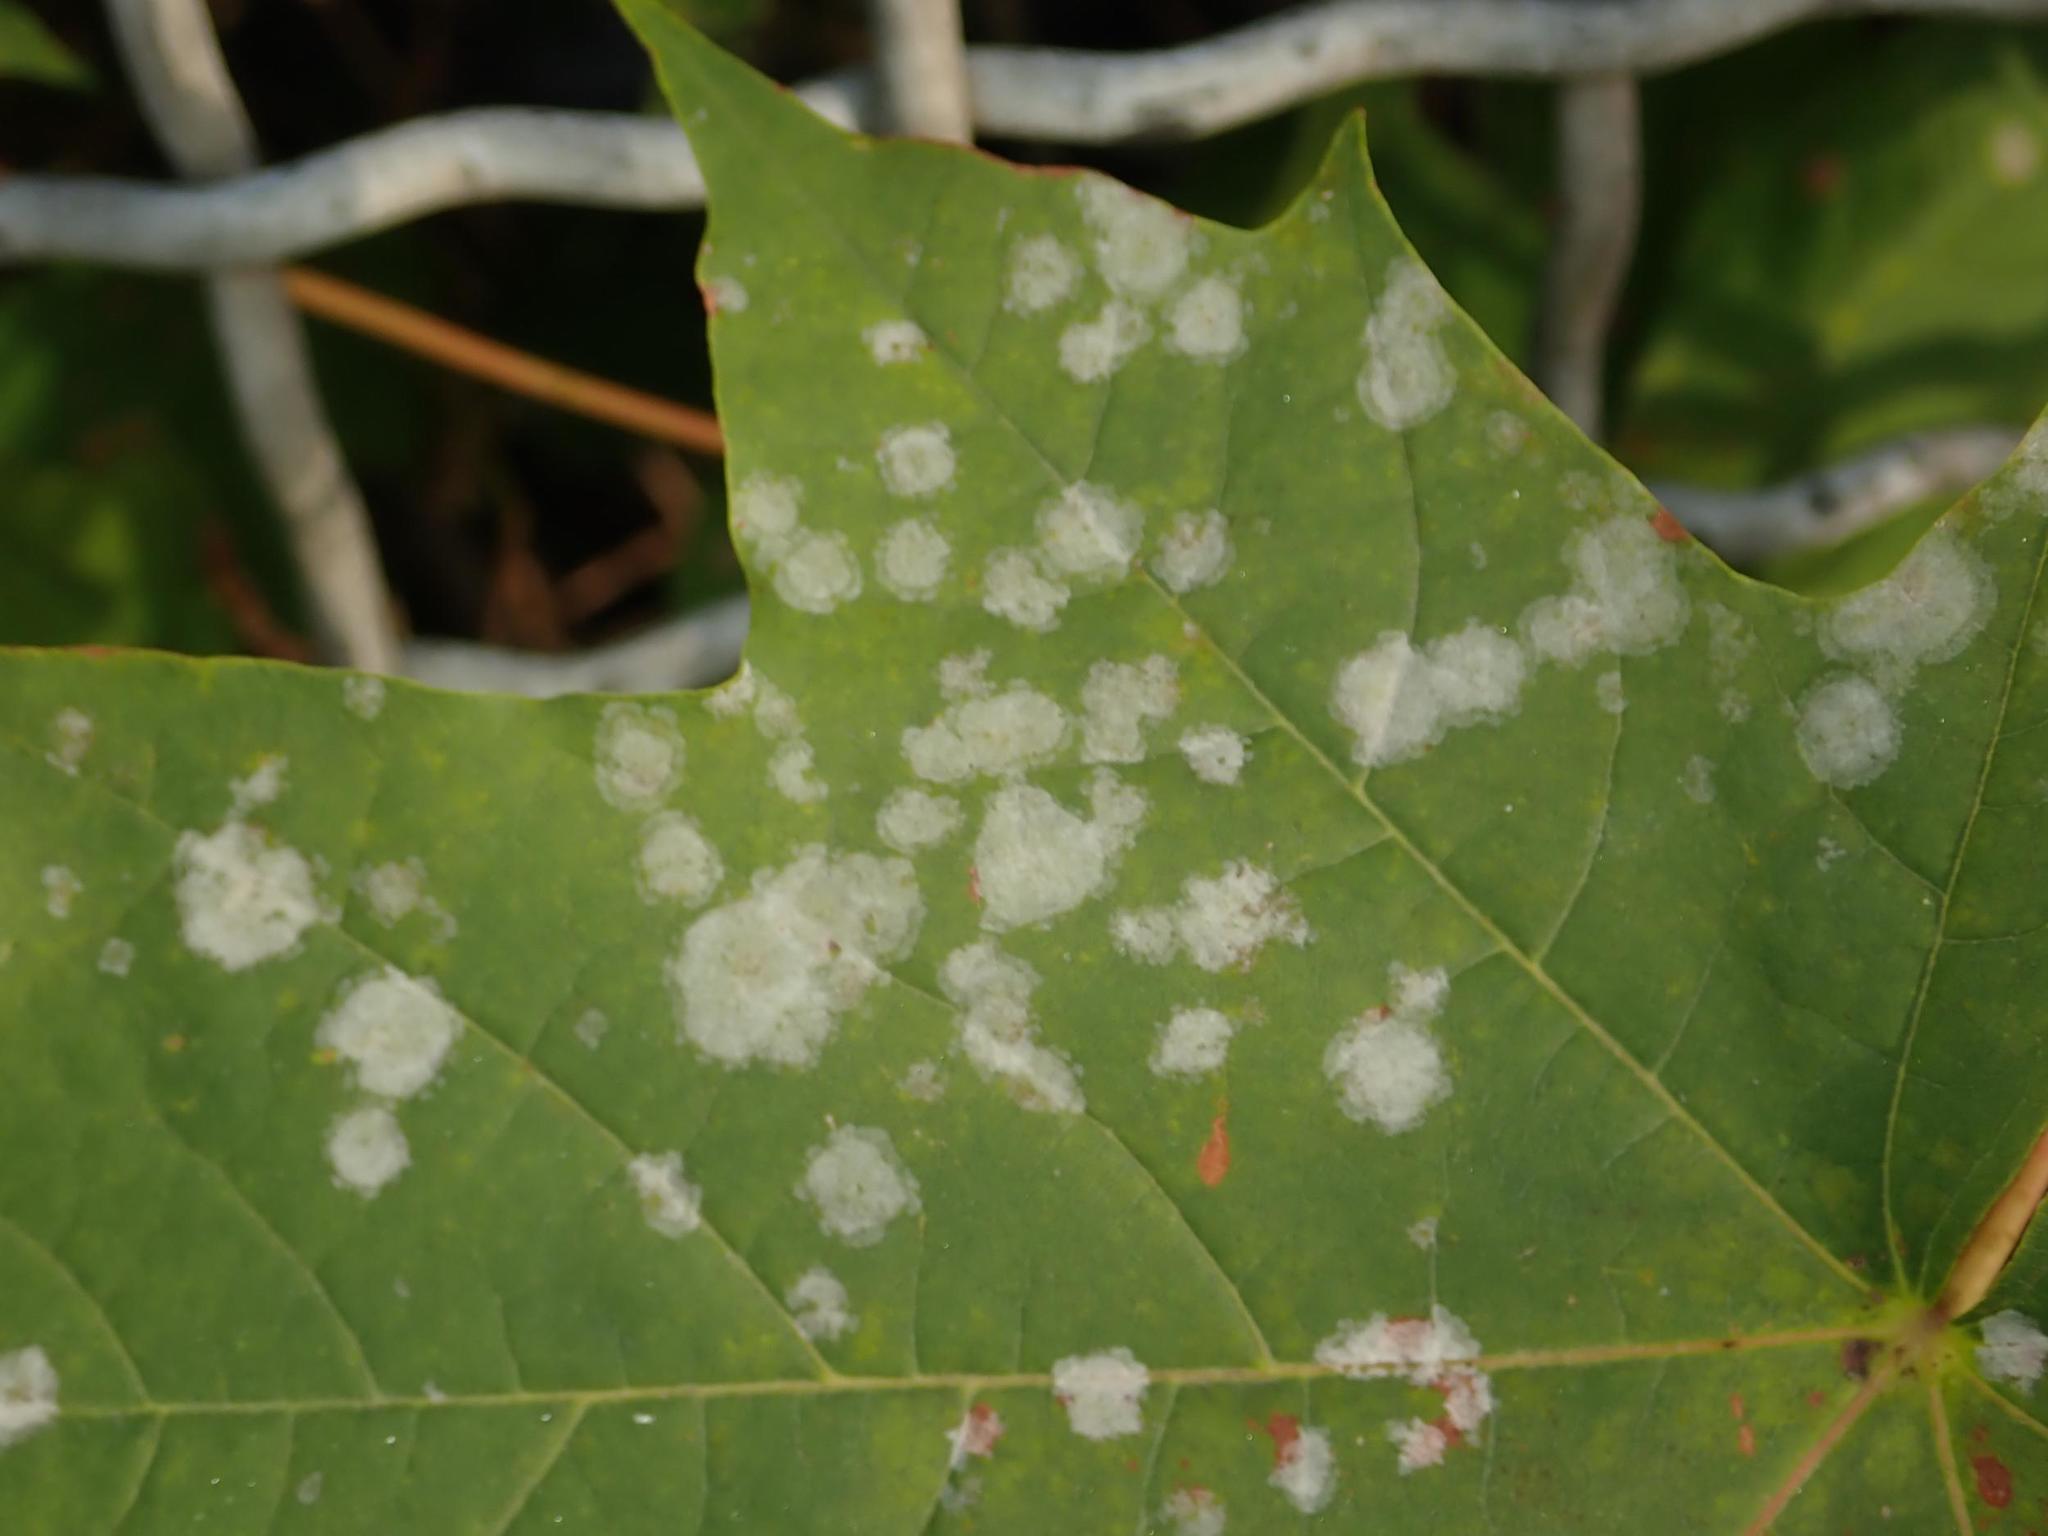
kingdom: Fungi
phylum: Ascomycota
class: Leotiomycetes
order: Helotiales
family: Erysiphaceae
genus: Sawadaea
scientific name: Sawadaea tulasnei
